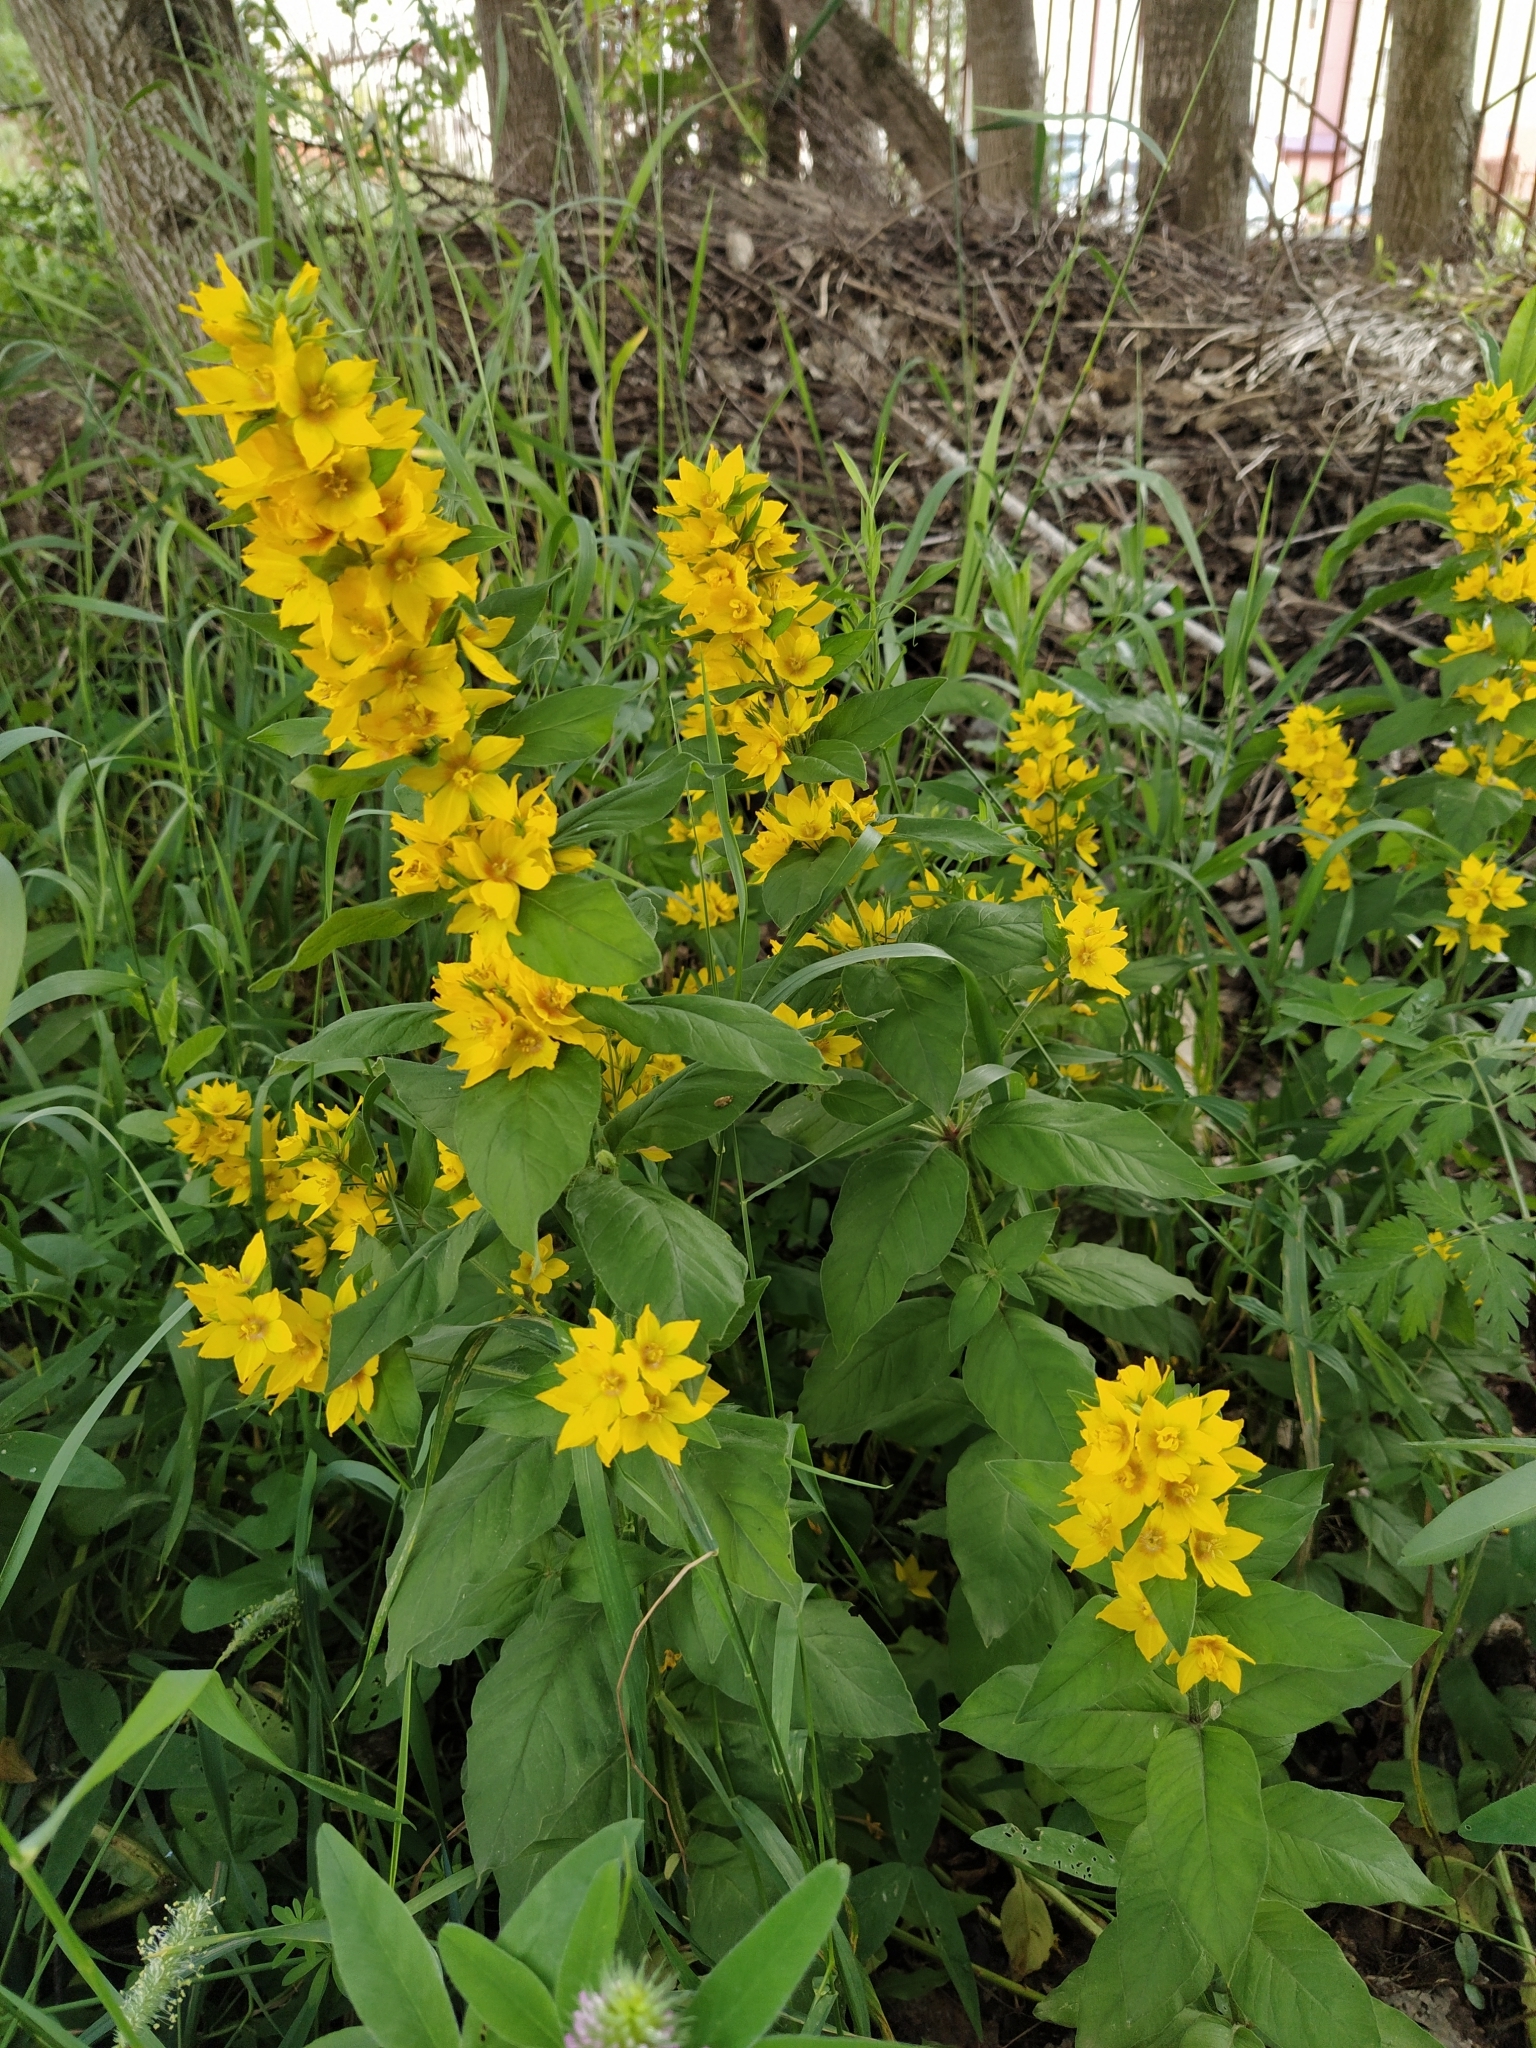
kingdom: Plantae
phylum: Tracheophyta
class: Magnoliopsida
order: Ericales
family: Primulaceae
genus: Lysimachia
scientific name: Lysimachia punctata
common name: Dotted loosestrife
